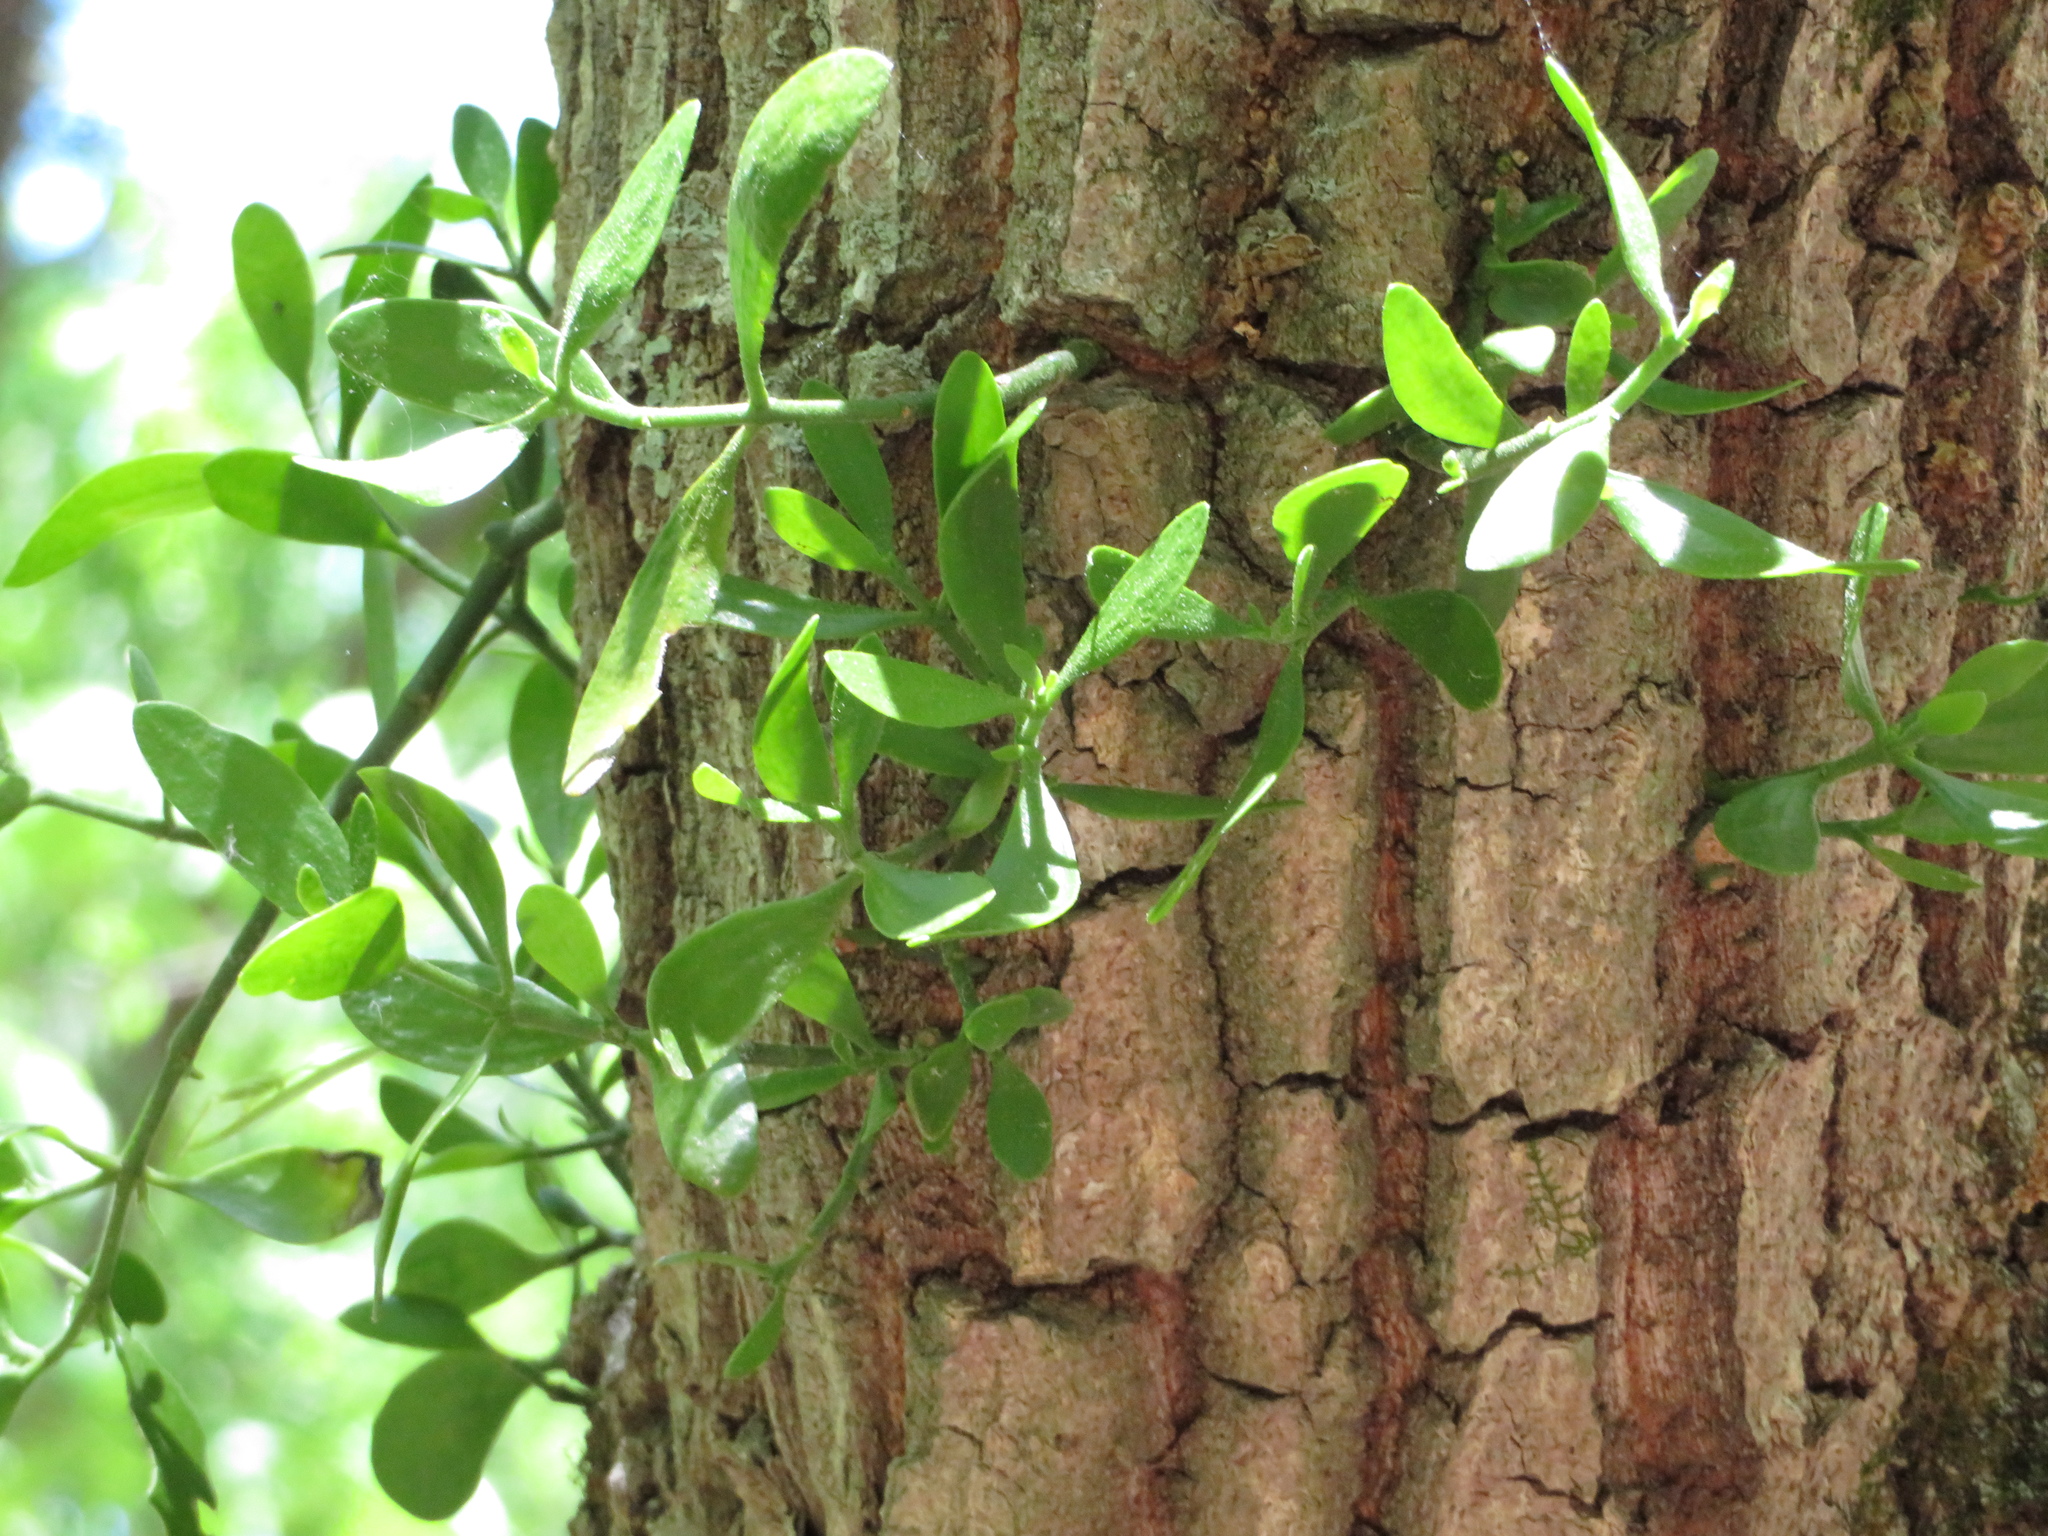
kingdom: Plantae
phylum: Tracheophyta
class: Magnoliopsida
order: Santalales
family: Viscaceae
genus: Phoradendron
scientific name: Phoradendron leucarpum
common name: Pacific mistletoe
